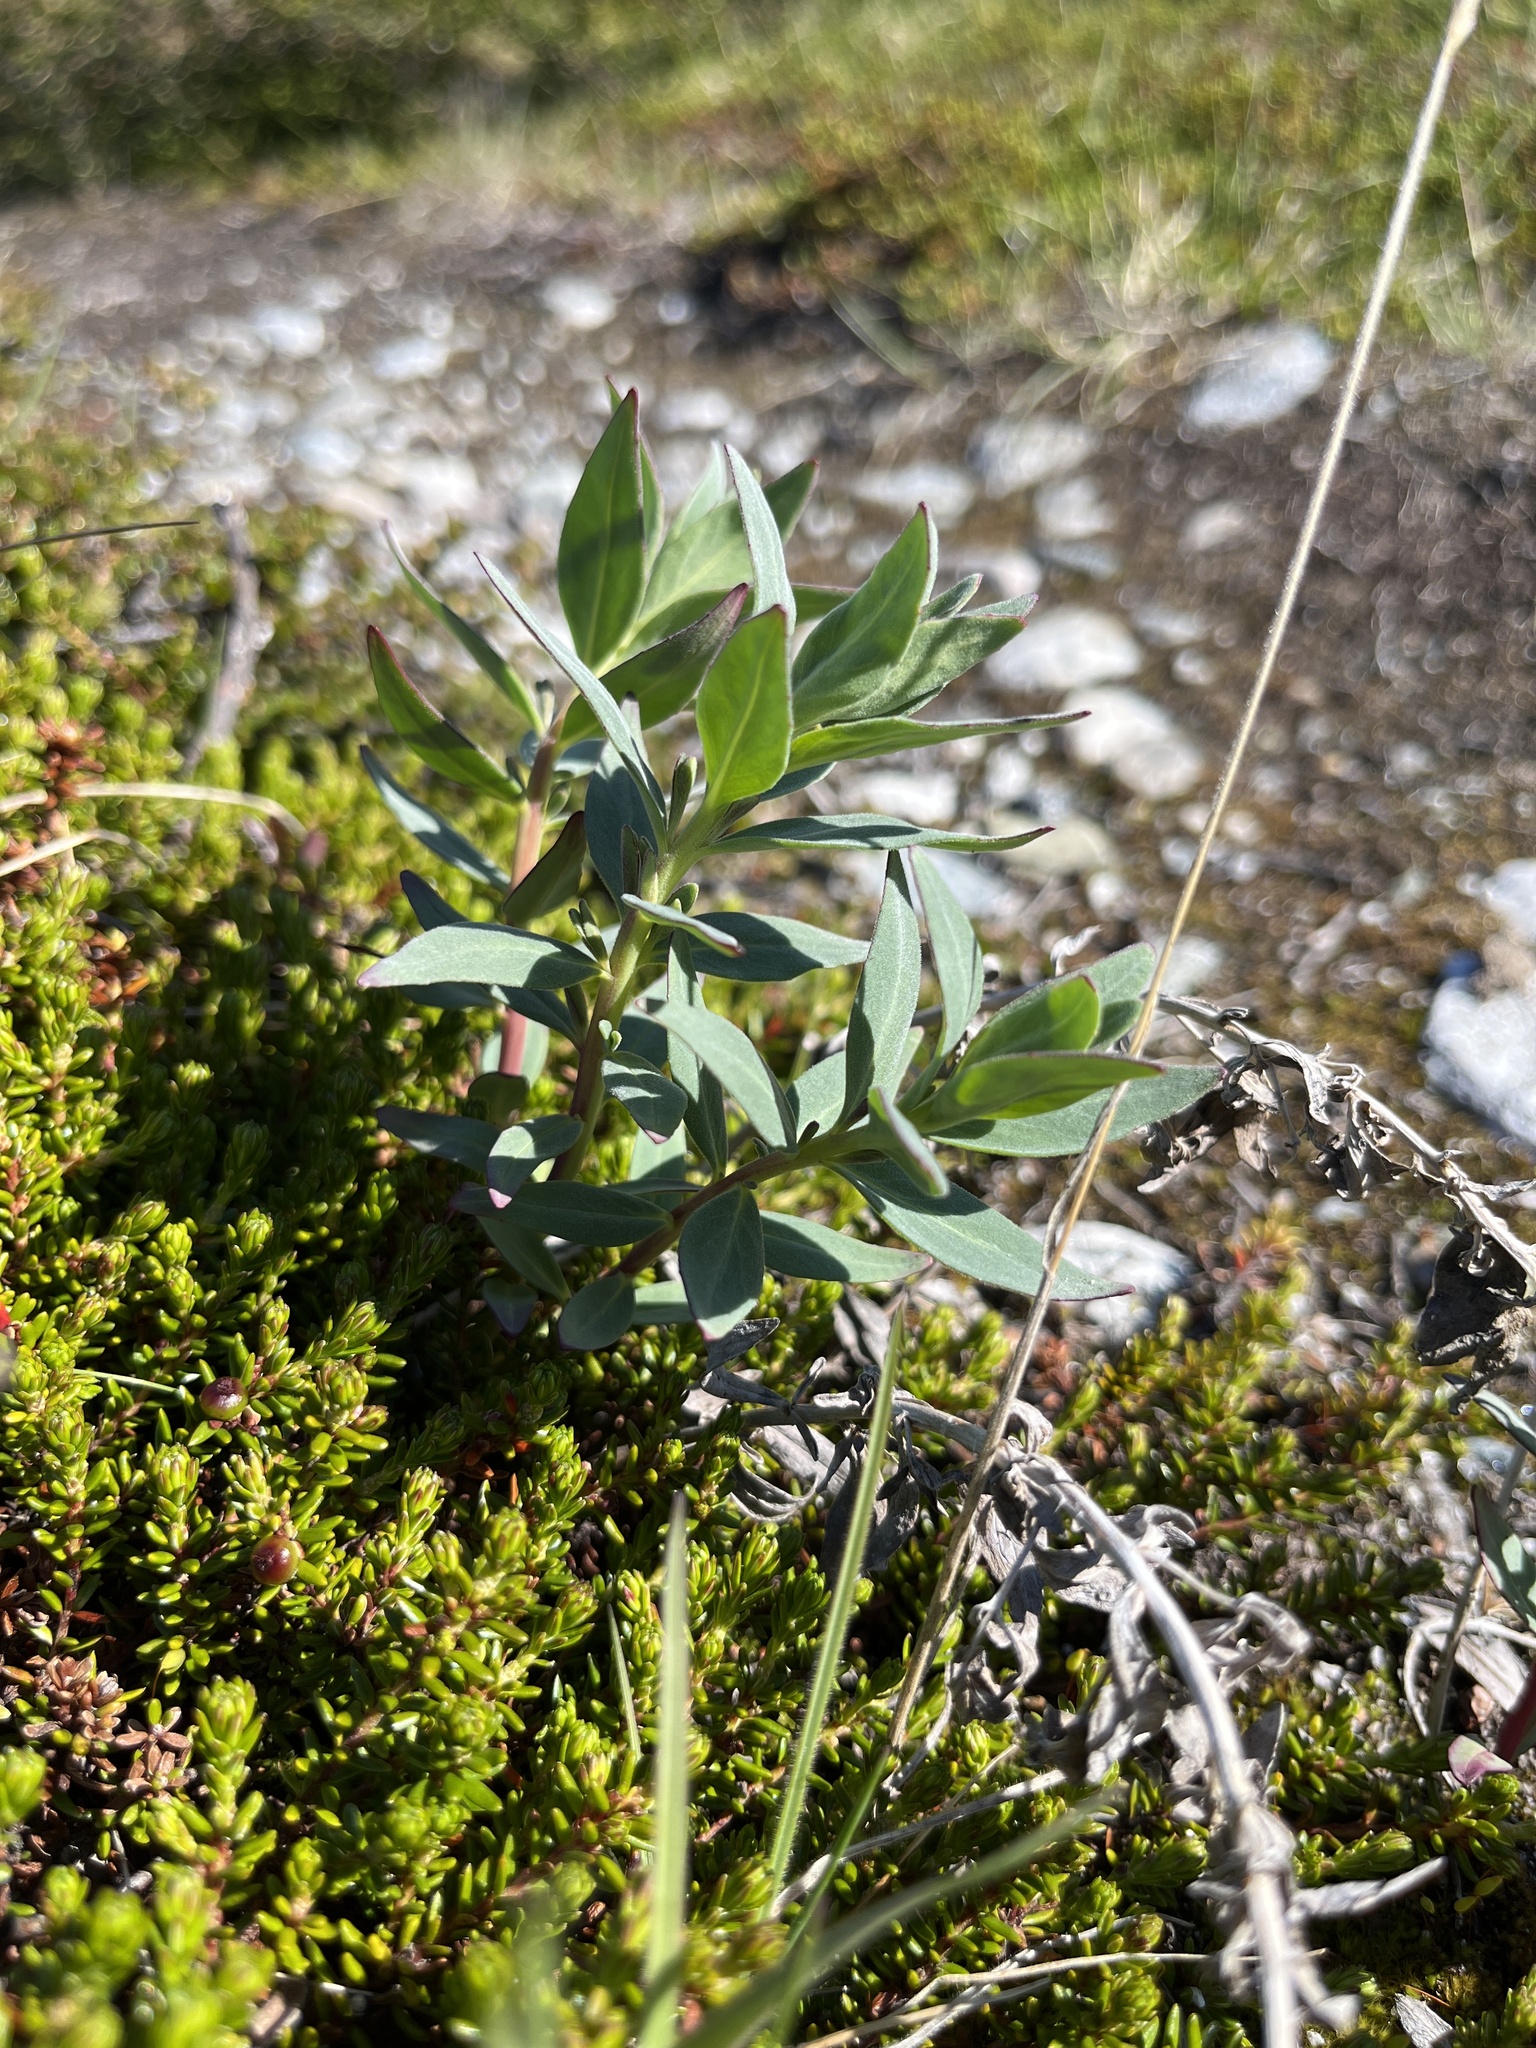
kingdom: Plantae
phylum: Tracheophyta
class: Magnoliopsida
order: Myrtales
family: Onagraceae
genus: Chamaenerion
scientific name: Chamaenerion latifolium
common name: Dwarf fireweed
